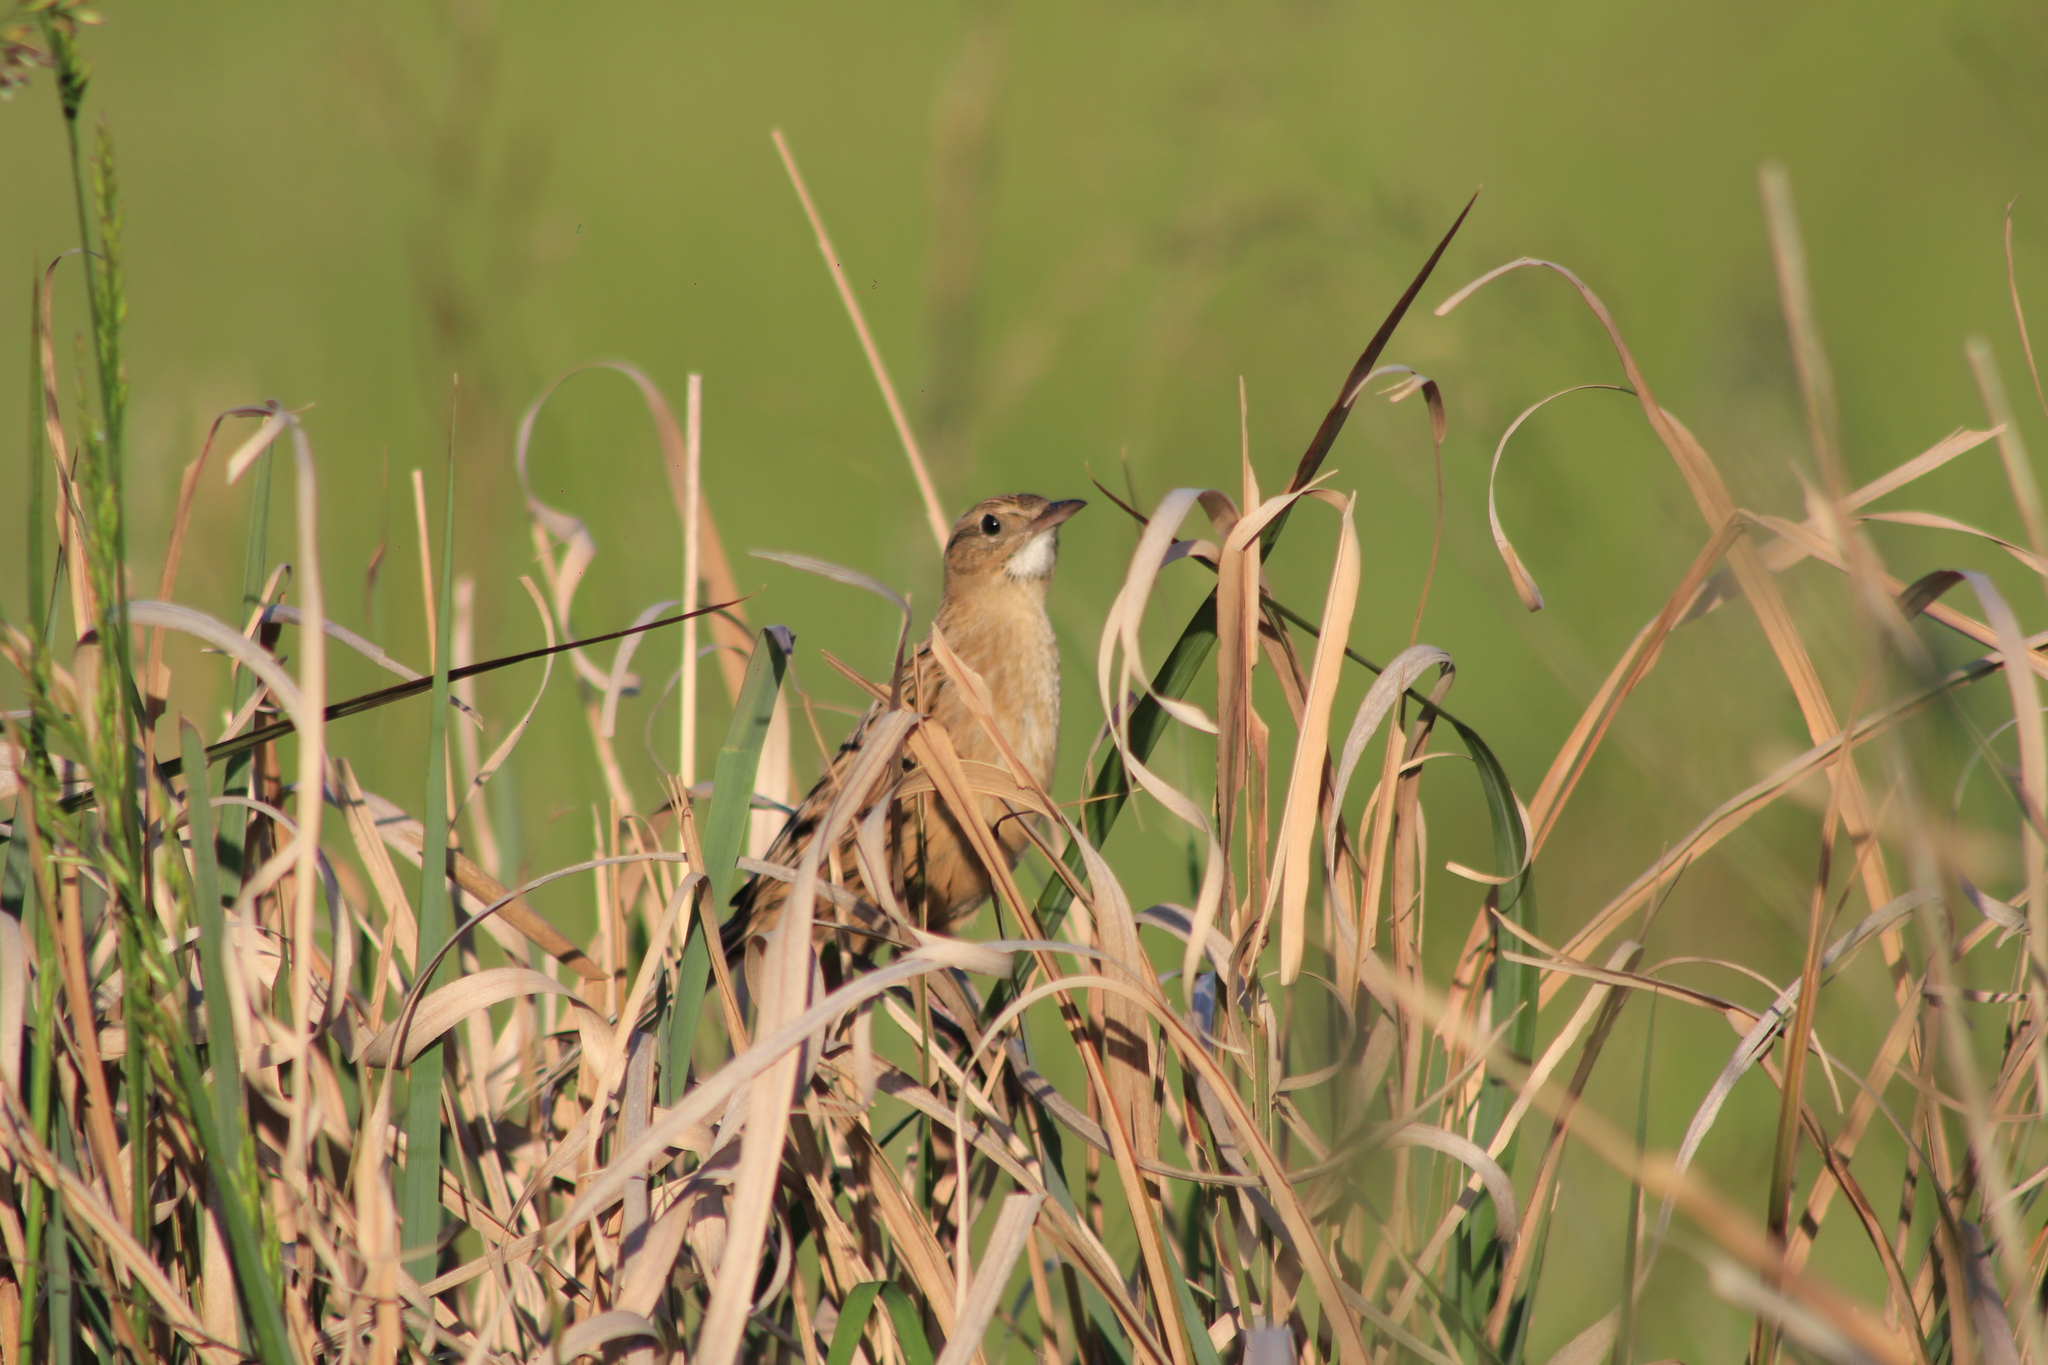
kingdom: Animalia
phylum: Chordata
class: Aves
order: Passeriformes
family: Furnariidae
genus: Asthenes
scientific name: Asthenes hudsoni
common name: Hudson's canastero
